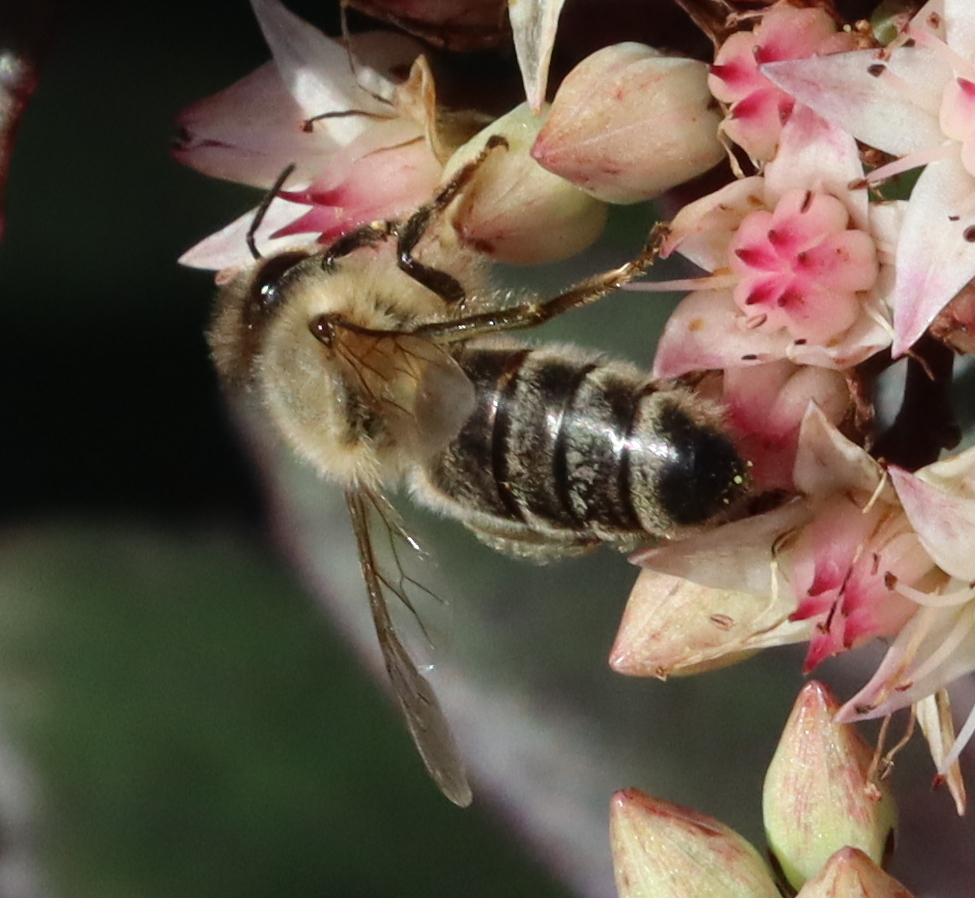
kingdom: Animalia
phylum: Arthropoda
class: Insecta
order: Hymenoptera
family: Apidae
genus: Apis
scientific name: Apis mellifera
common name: Honey bee
